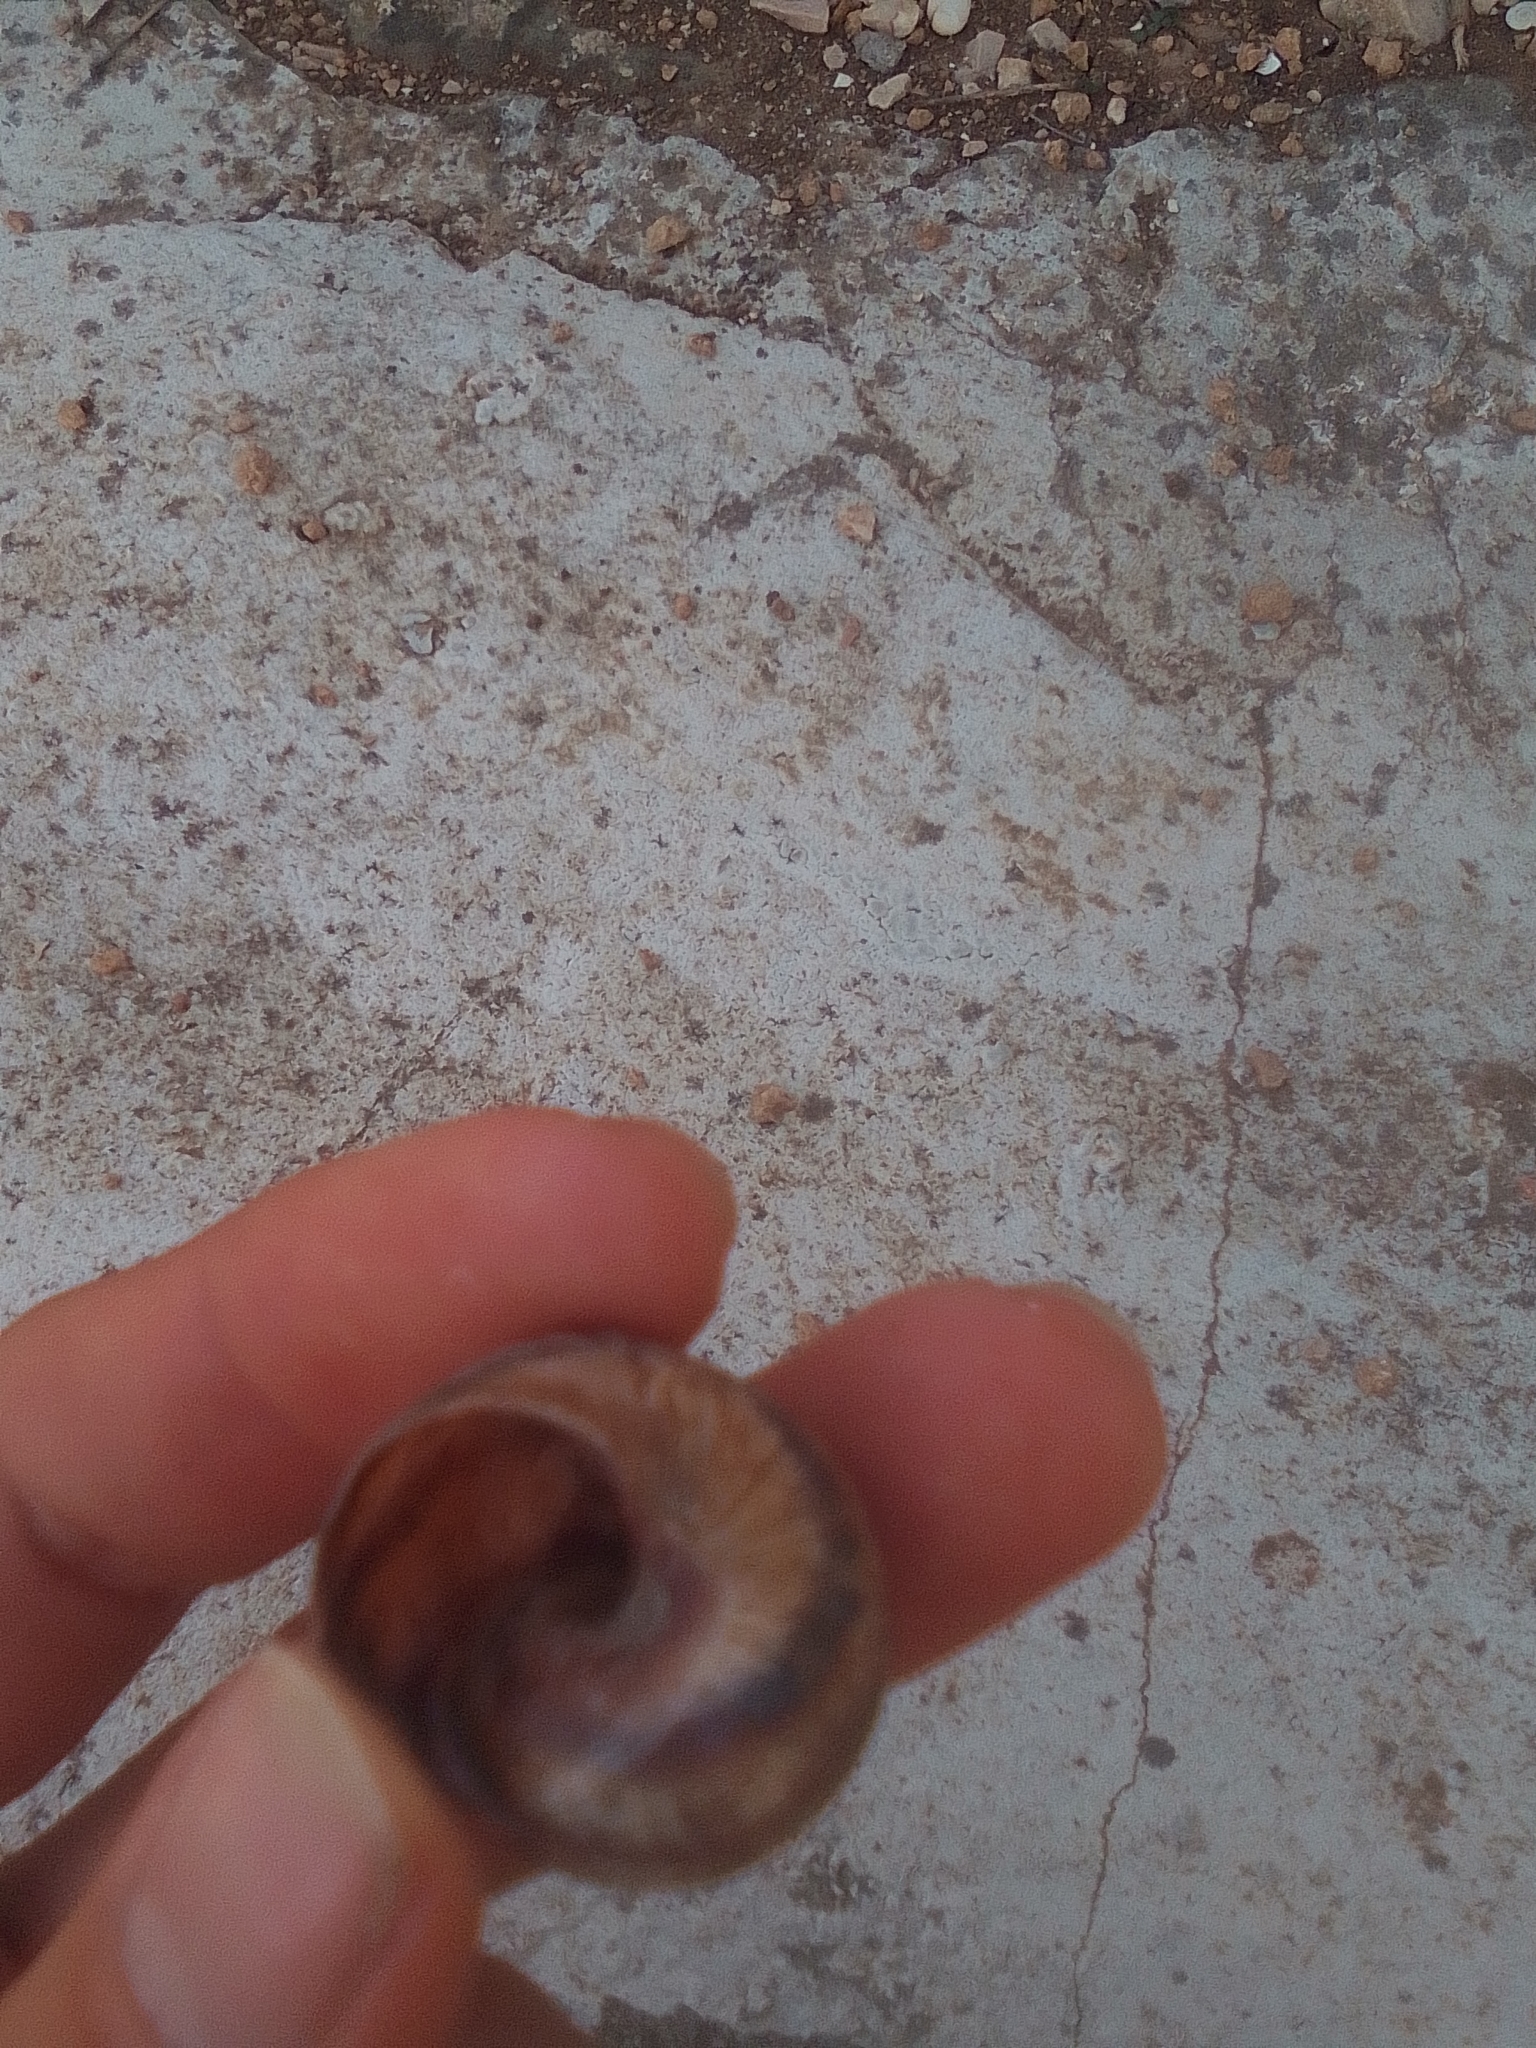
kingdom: Animalia
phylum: Mollusca
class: Gastropoda
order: Stylommatophora
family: Helicidae
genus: Helix
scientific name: Helix albescens
